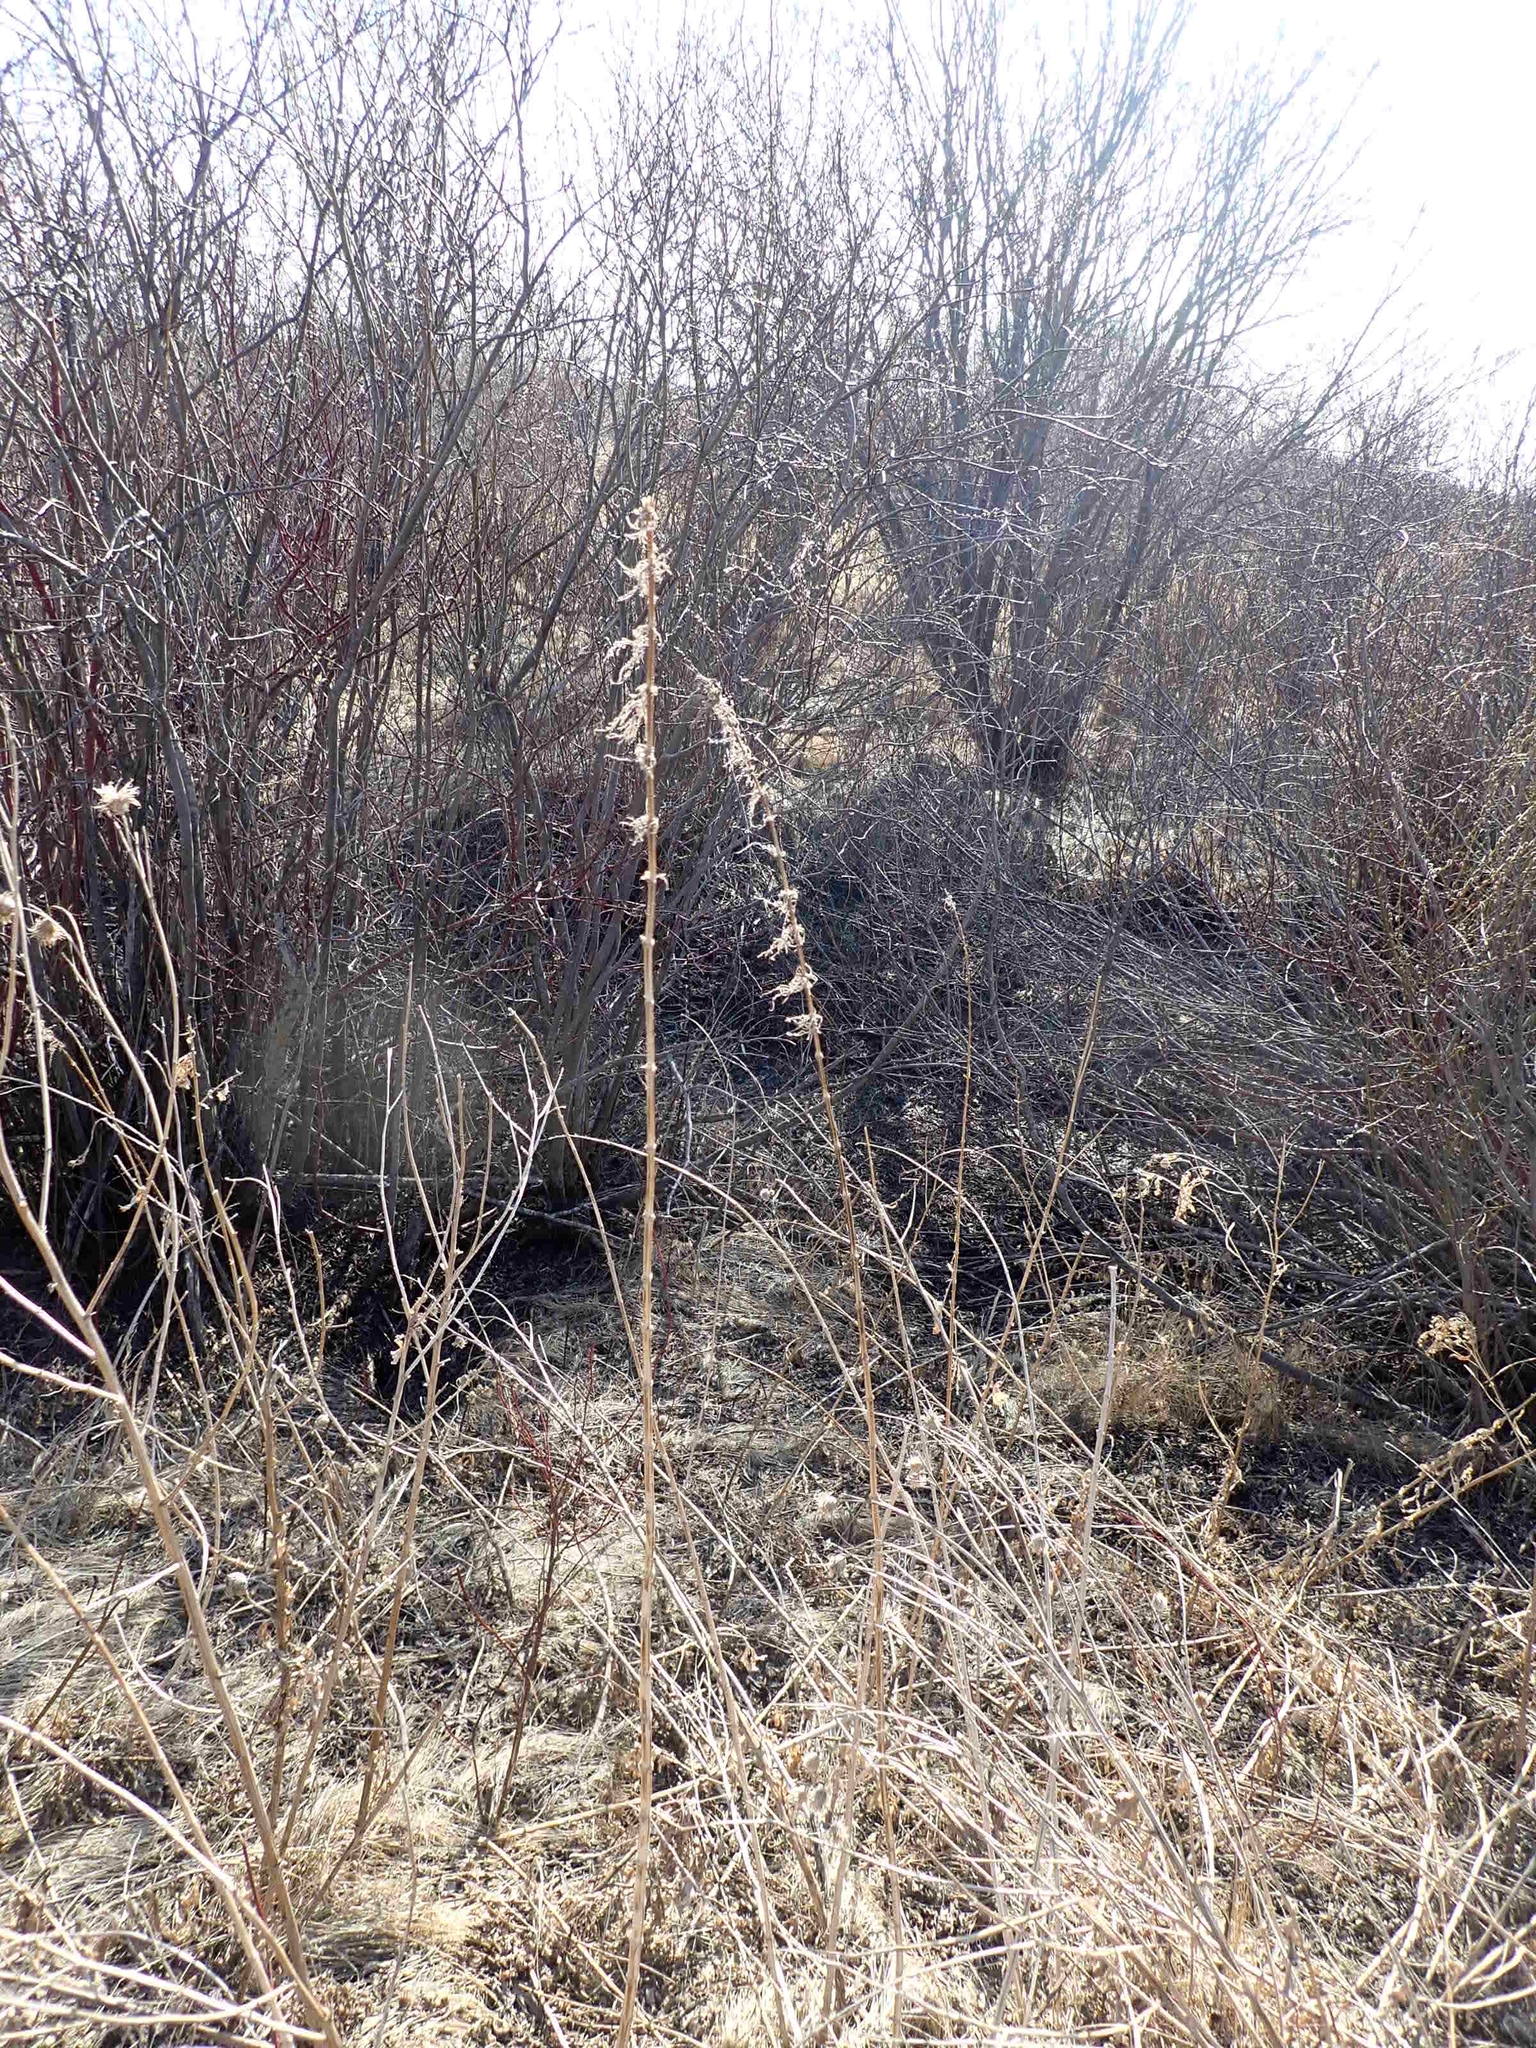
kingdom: Plantae
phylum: Tracheophyta
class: Magnoliopsida
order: Rosales
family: Urticaceae
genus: Urtica
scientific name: Urtica gracilis
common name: Slender stinging nettle
